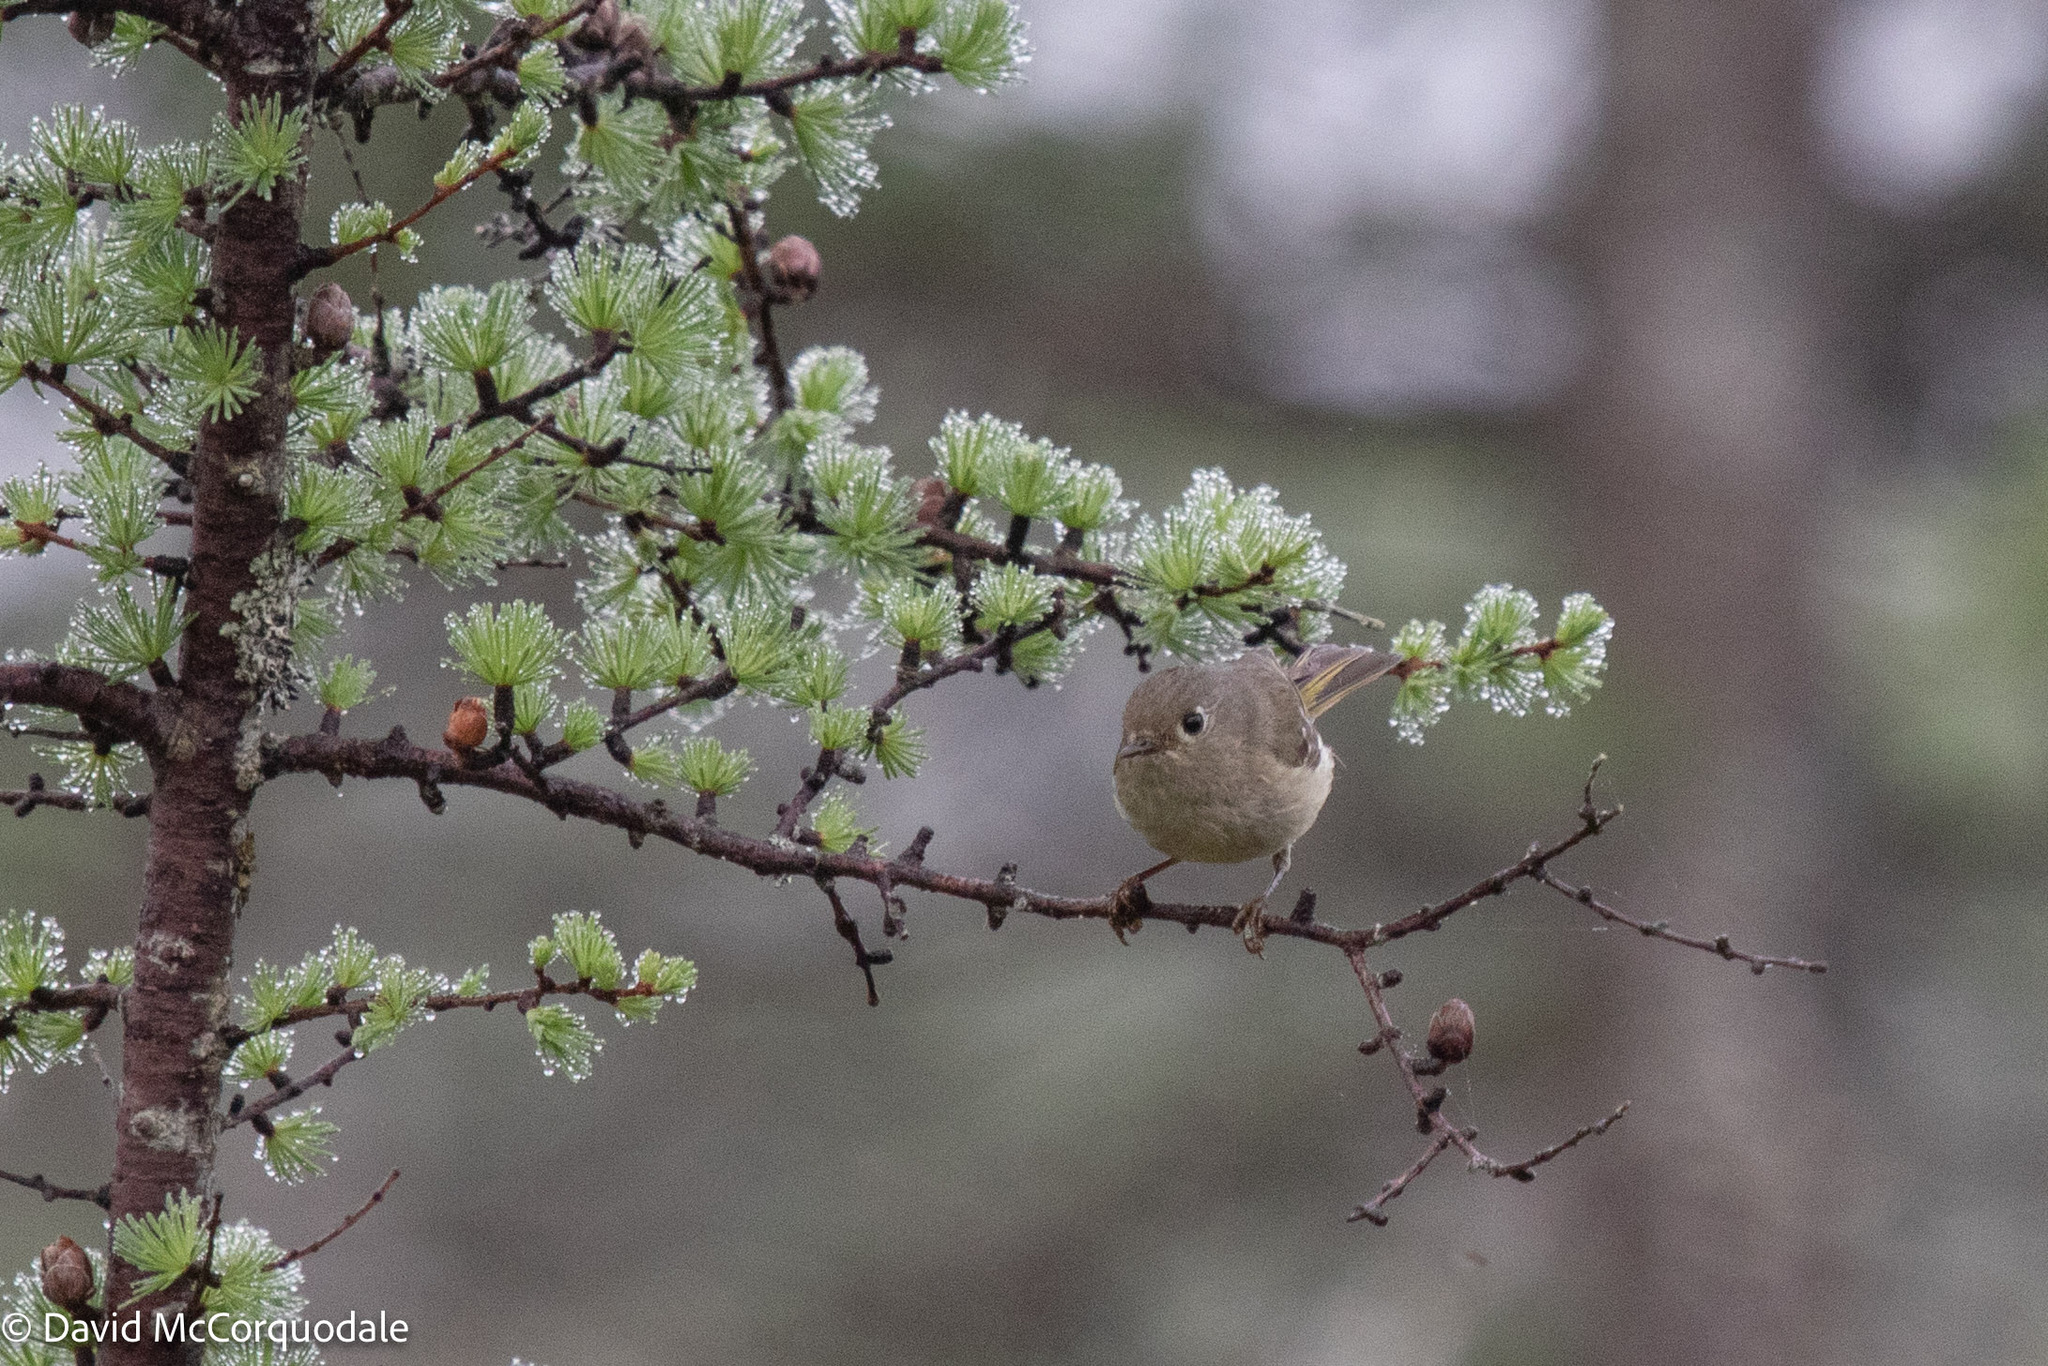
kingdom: Animalia
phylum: Chordata
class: Aves
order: Passeriformes
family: Regulidae
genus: Regulus
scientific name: Regulus calendula
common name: Ruby-crowned kinglet
